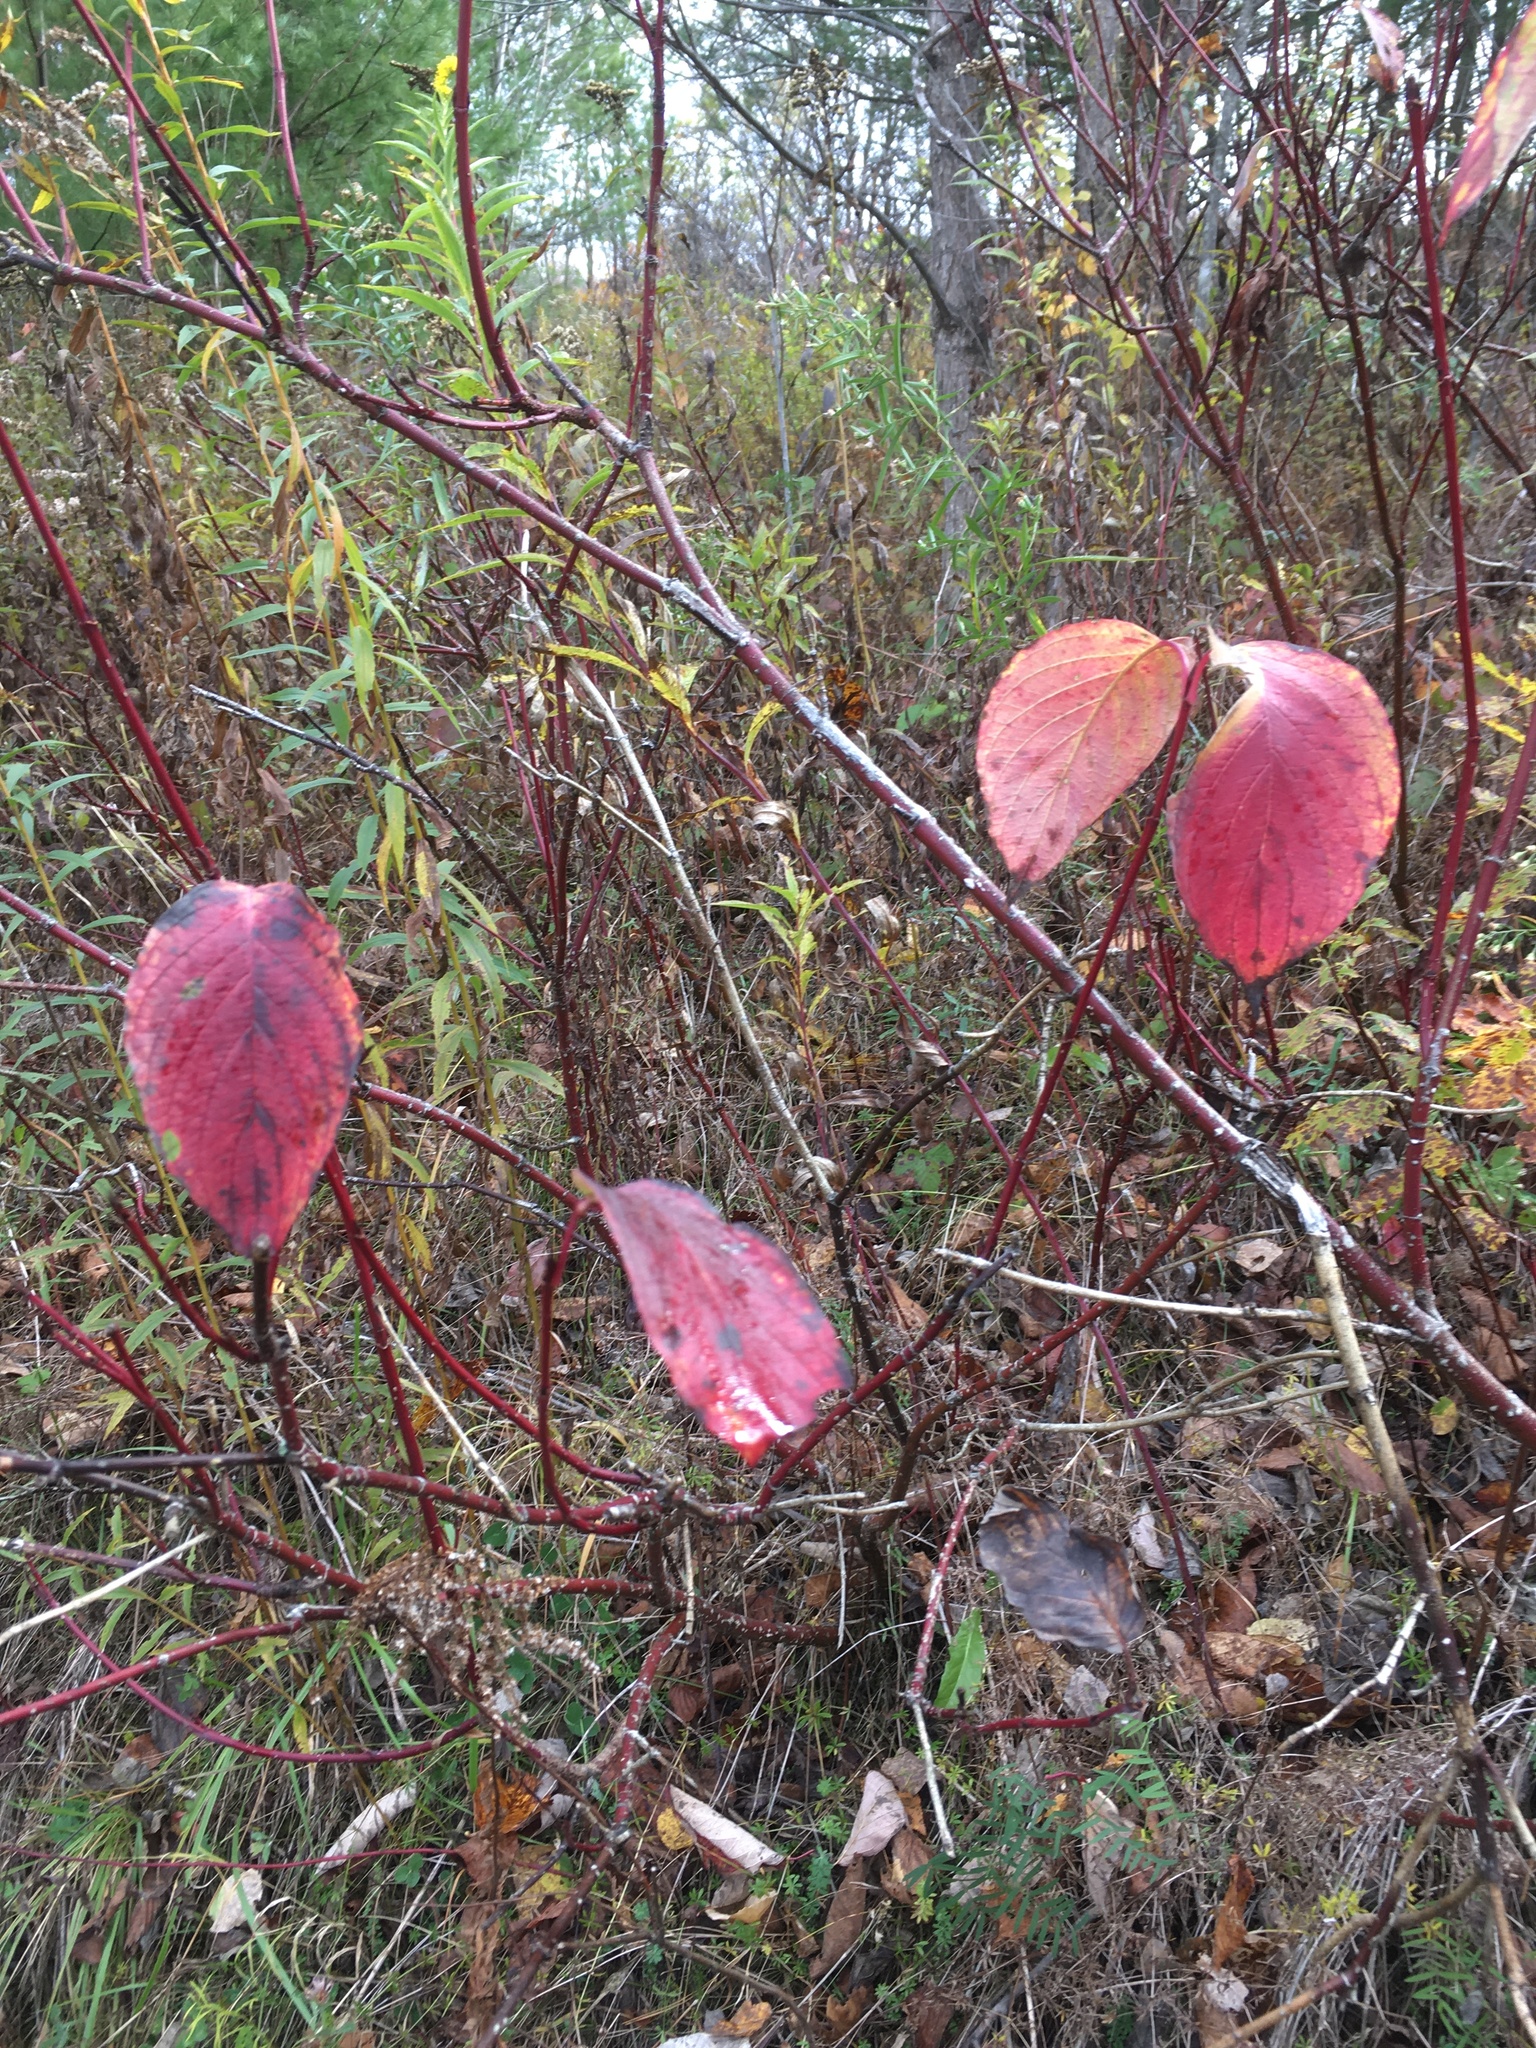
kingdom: Plantae
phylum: Tracheophyta
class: Magnoliopsida
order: Cornales
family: Cornaceae
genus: Cornus
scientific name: Cornus sericea
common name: Red-osier dogwood
